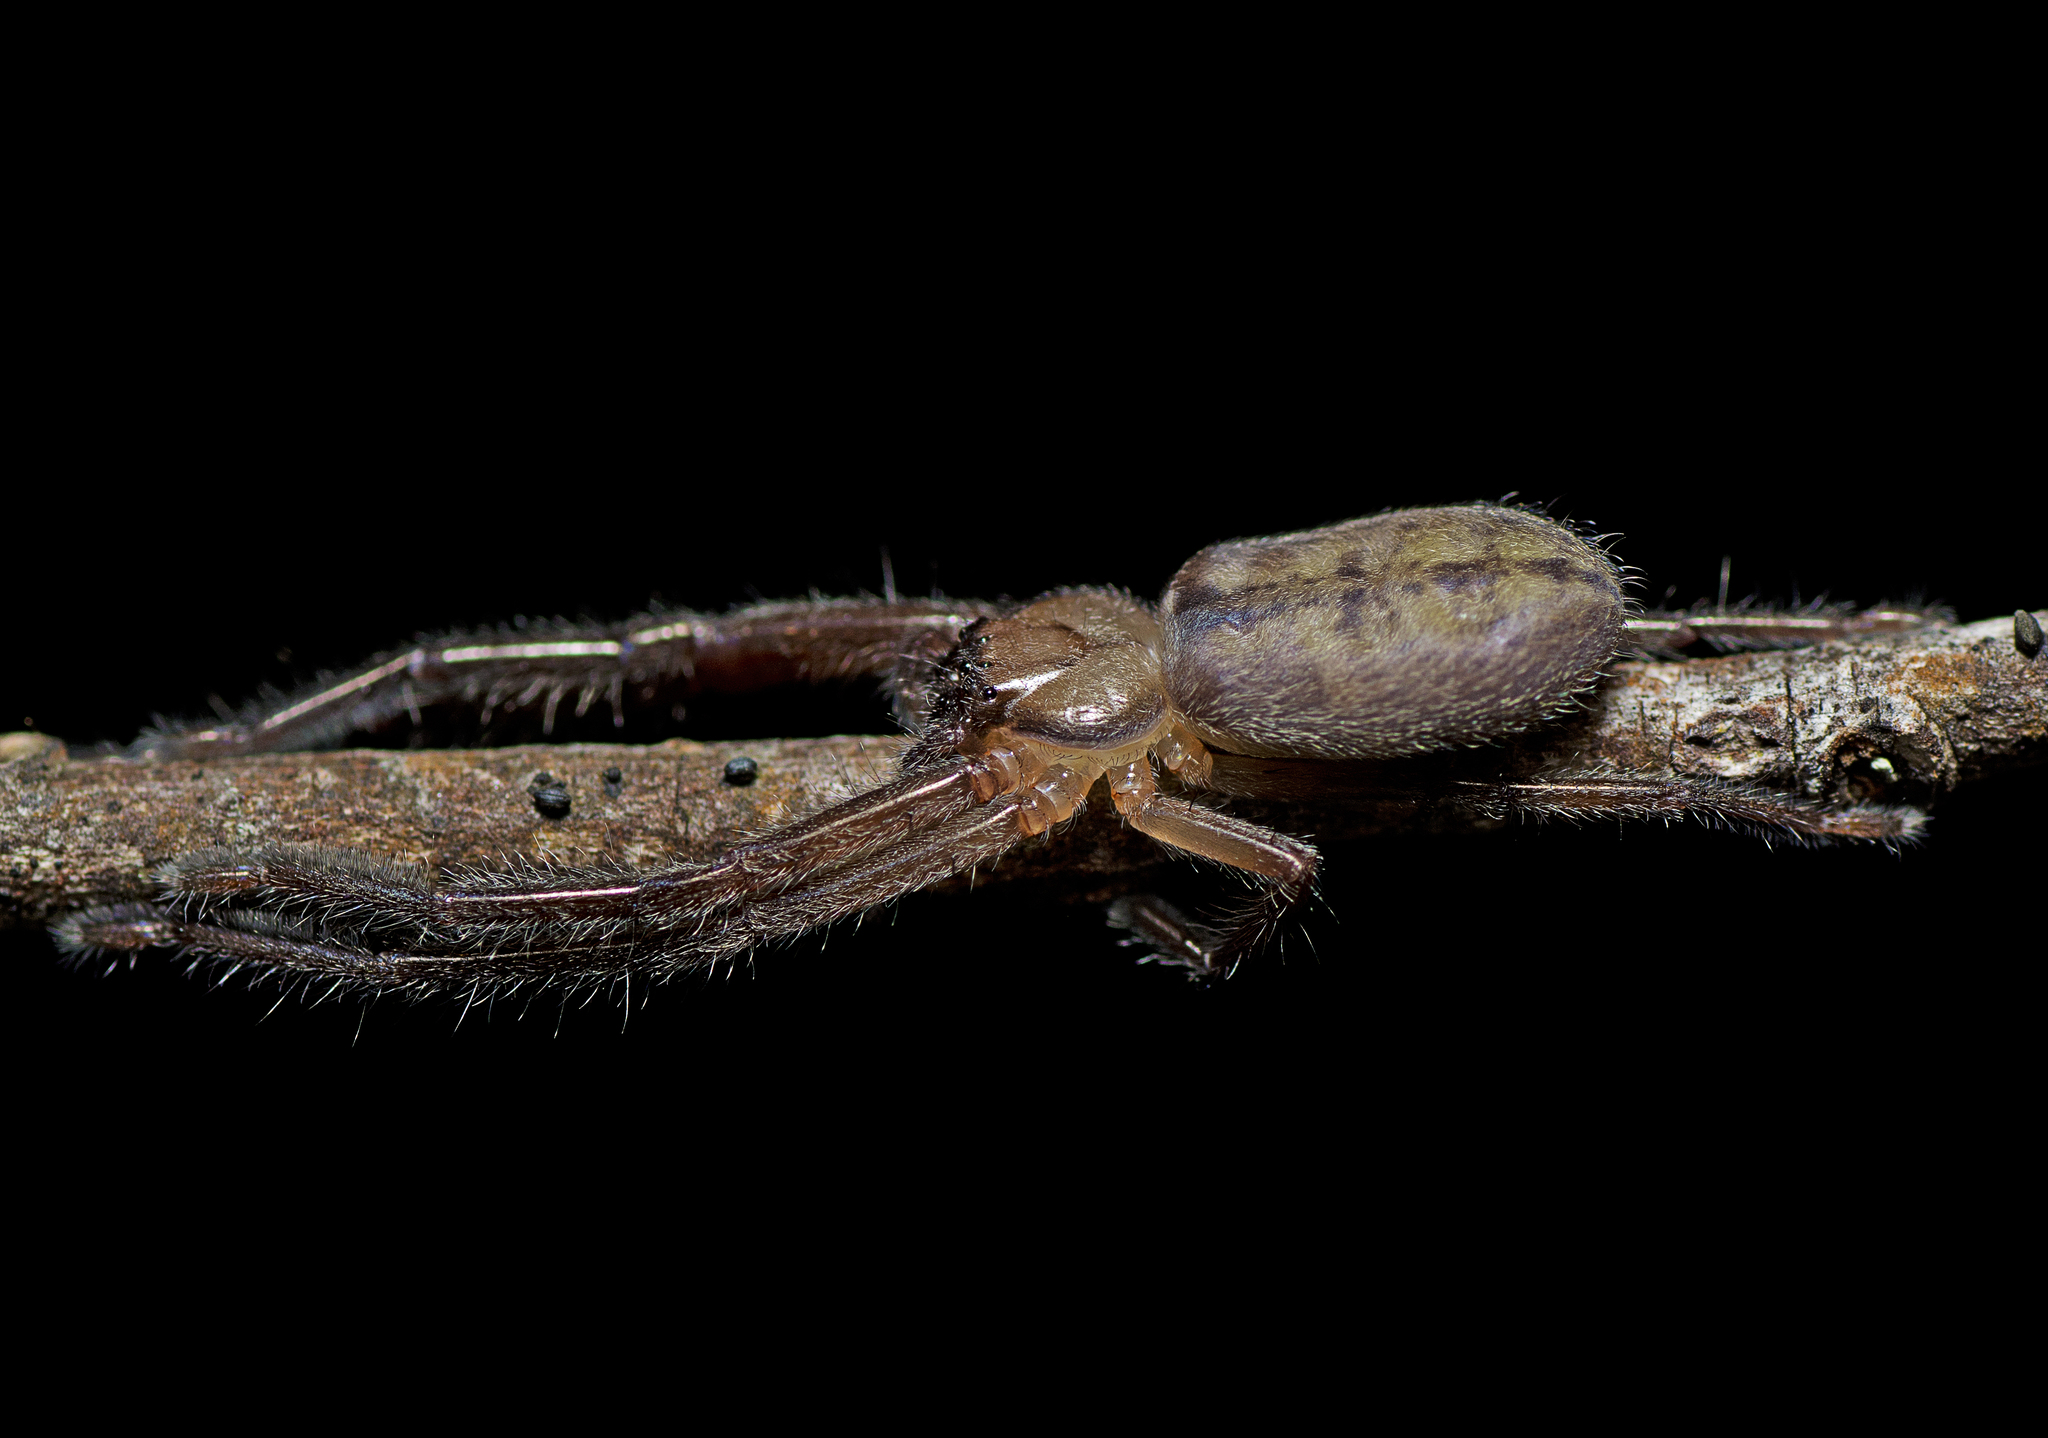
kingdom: Animalia
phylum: Arthropoda
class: Arachnida
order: Araneae
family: Sparassidae
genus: Delena
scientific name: Delena cancerides
